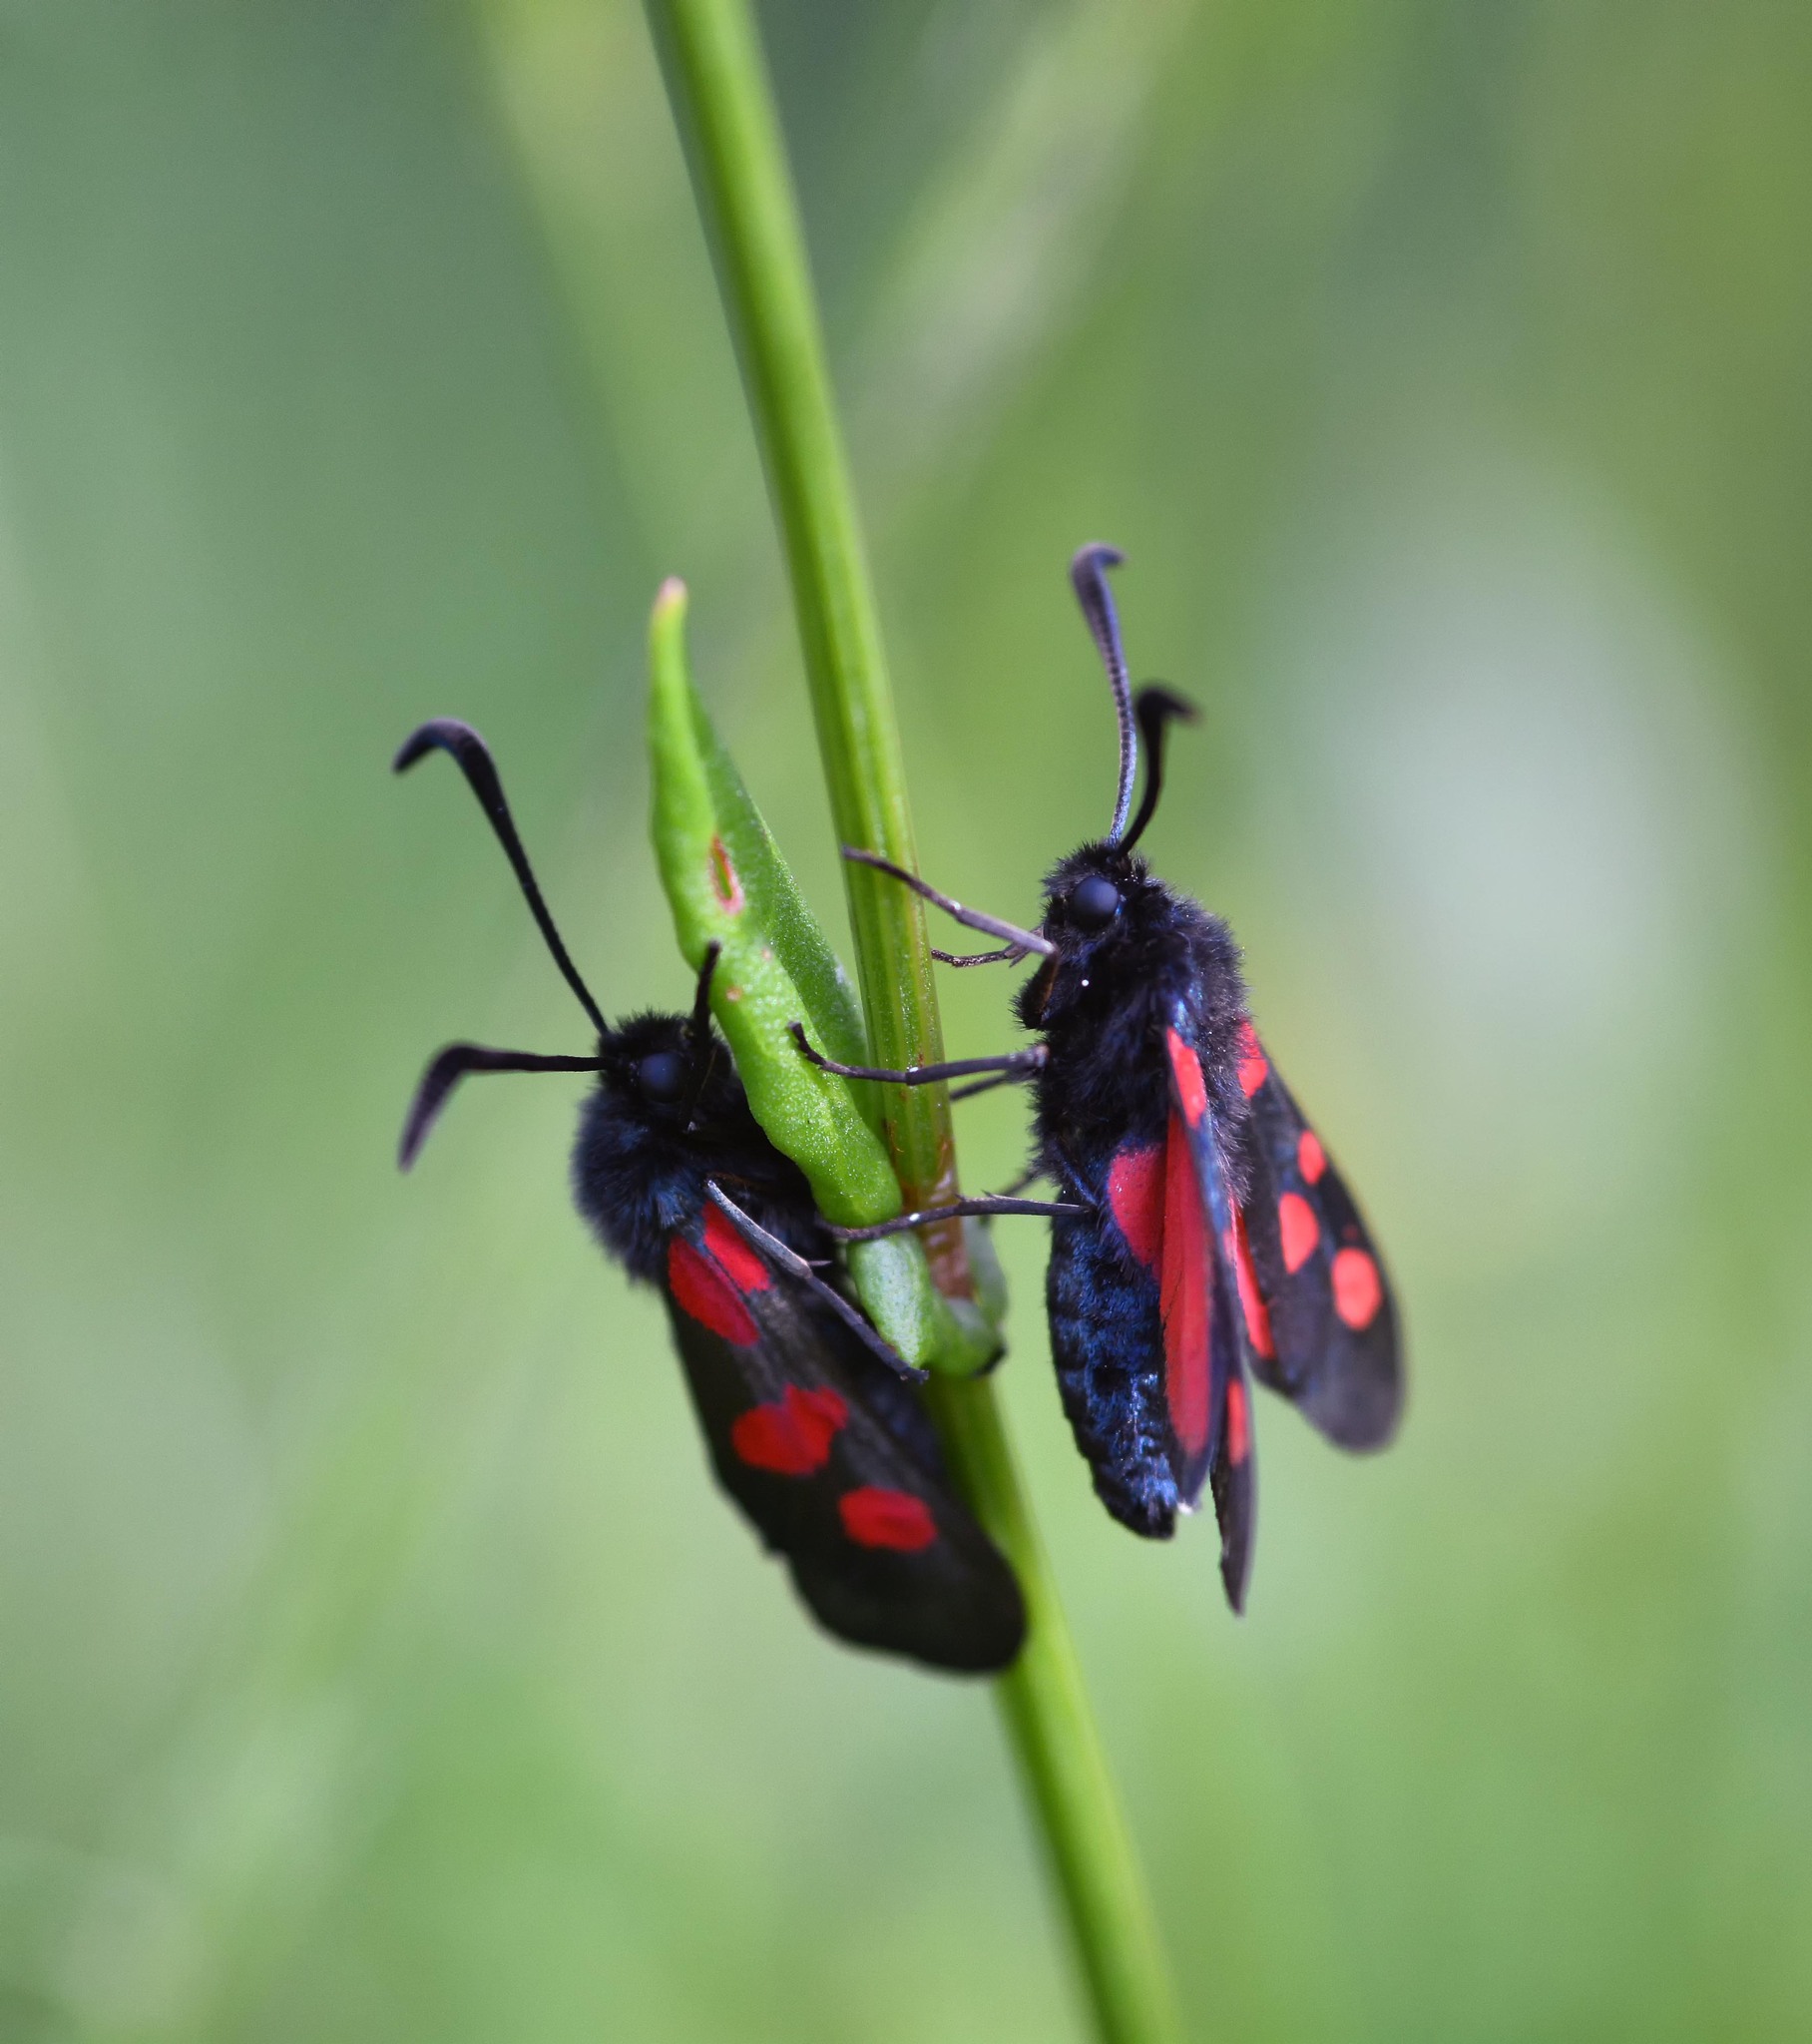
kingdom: Animalia
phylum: Arthropoda
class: Insecta
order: Lepidoptera
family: Zygaenidae
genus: Zygaena
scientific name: Zygaena trifolii
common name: Five-spot burnet
